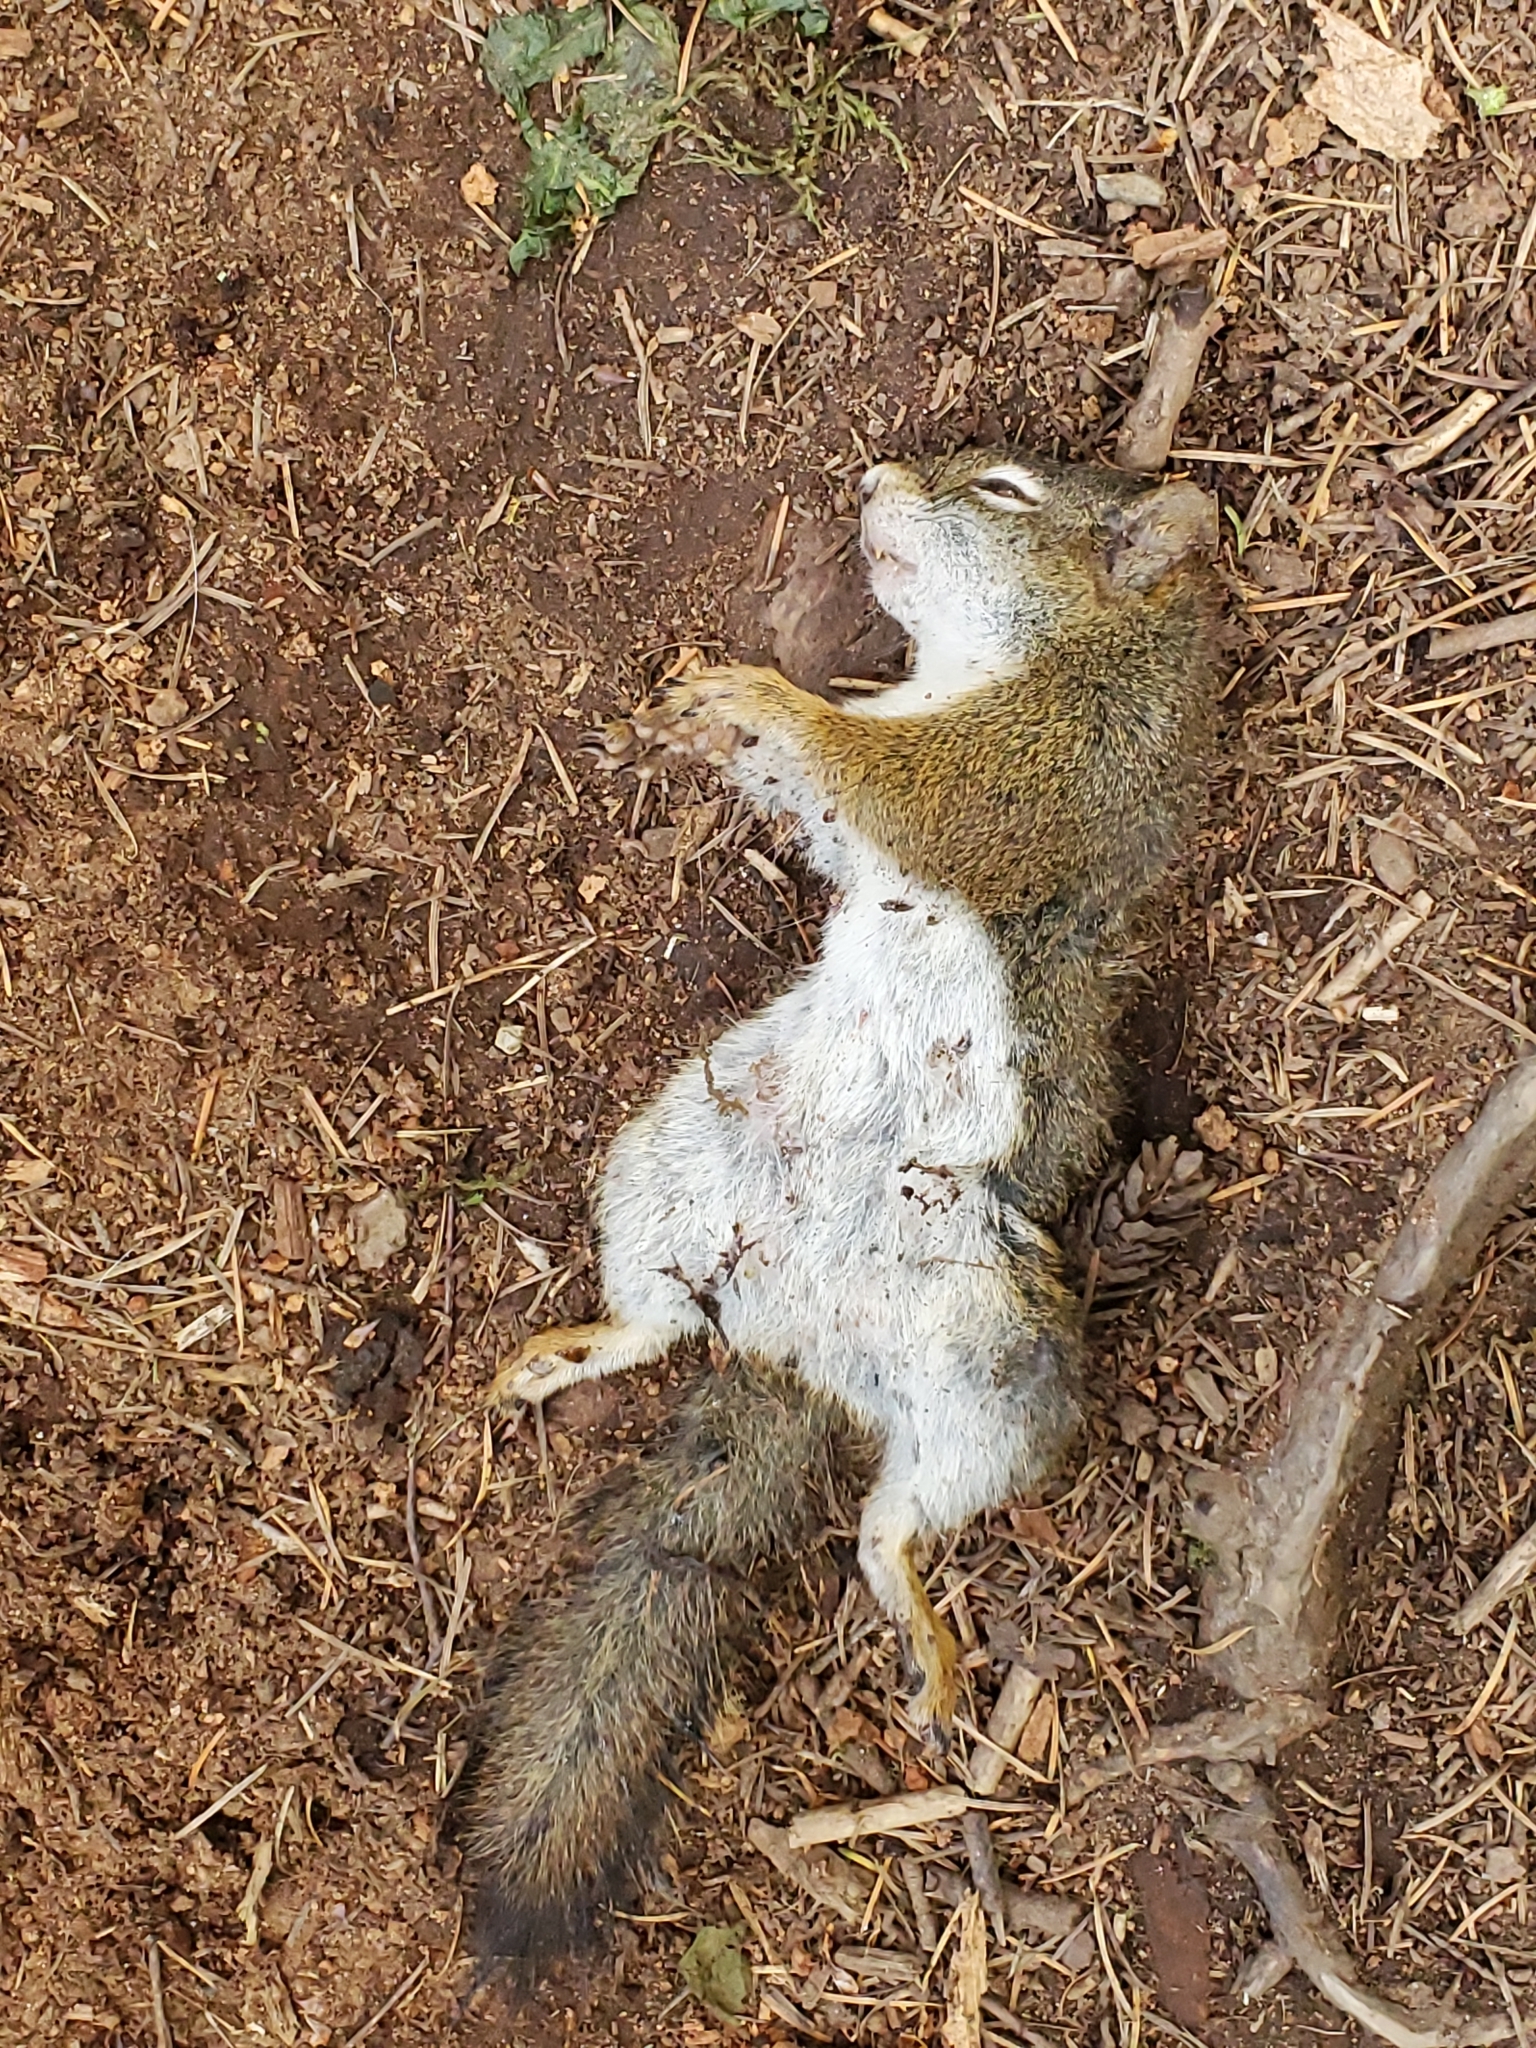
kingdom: Animalia
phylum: Chordata
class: Mammalia
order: Rodentia
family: Sciuridae
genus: Tamiasciurus
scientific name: Tamiasciurus hudsonicus
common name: Red squirrel
